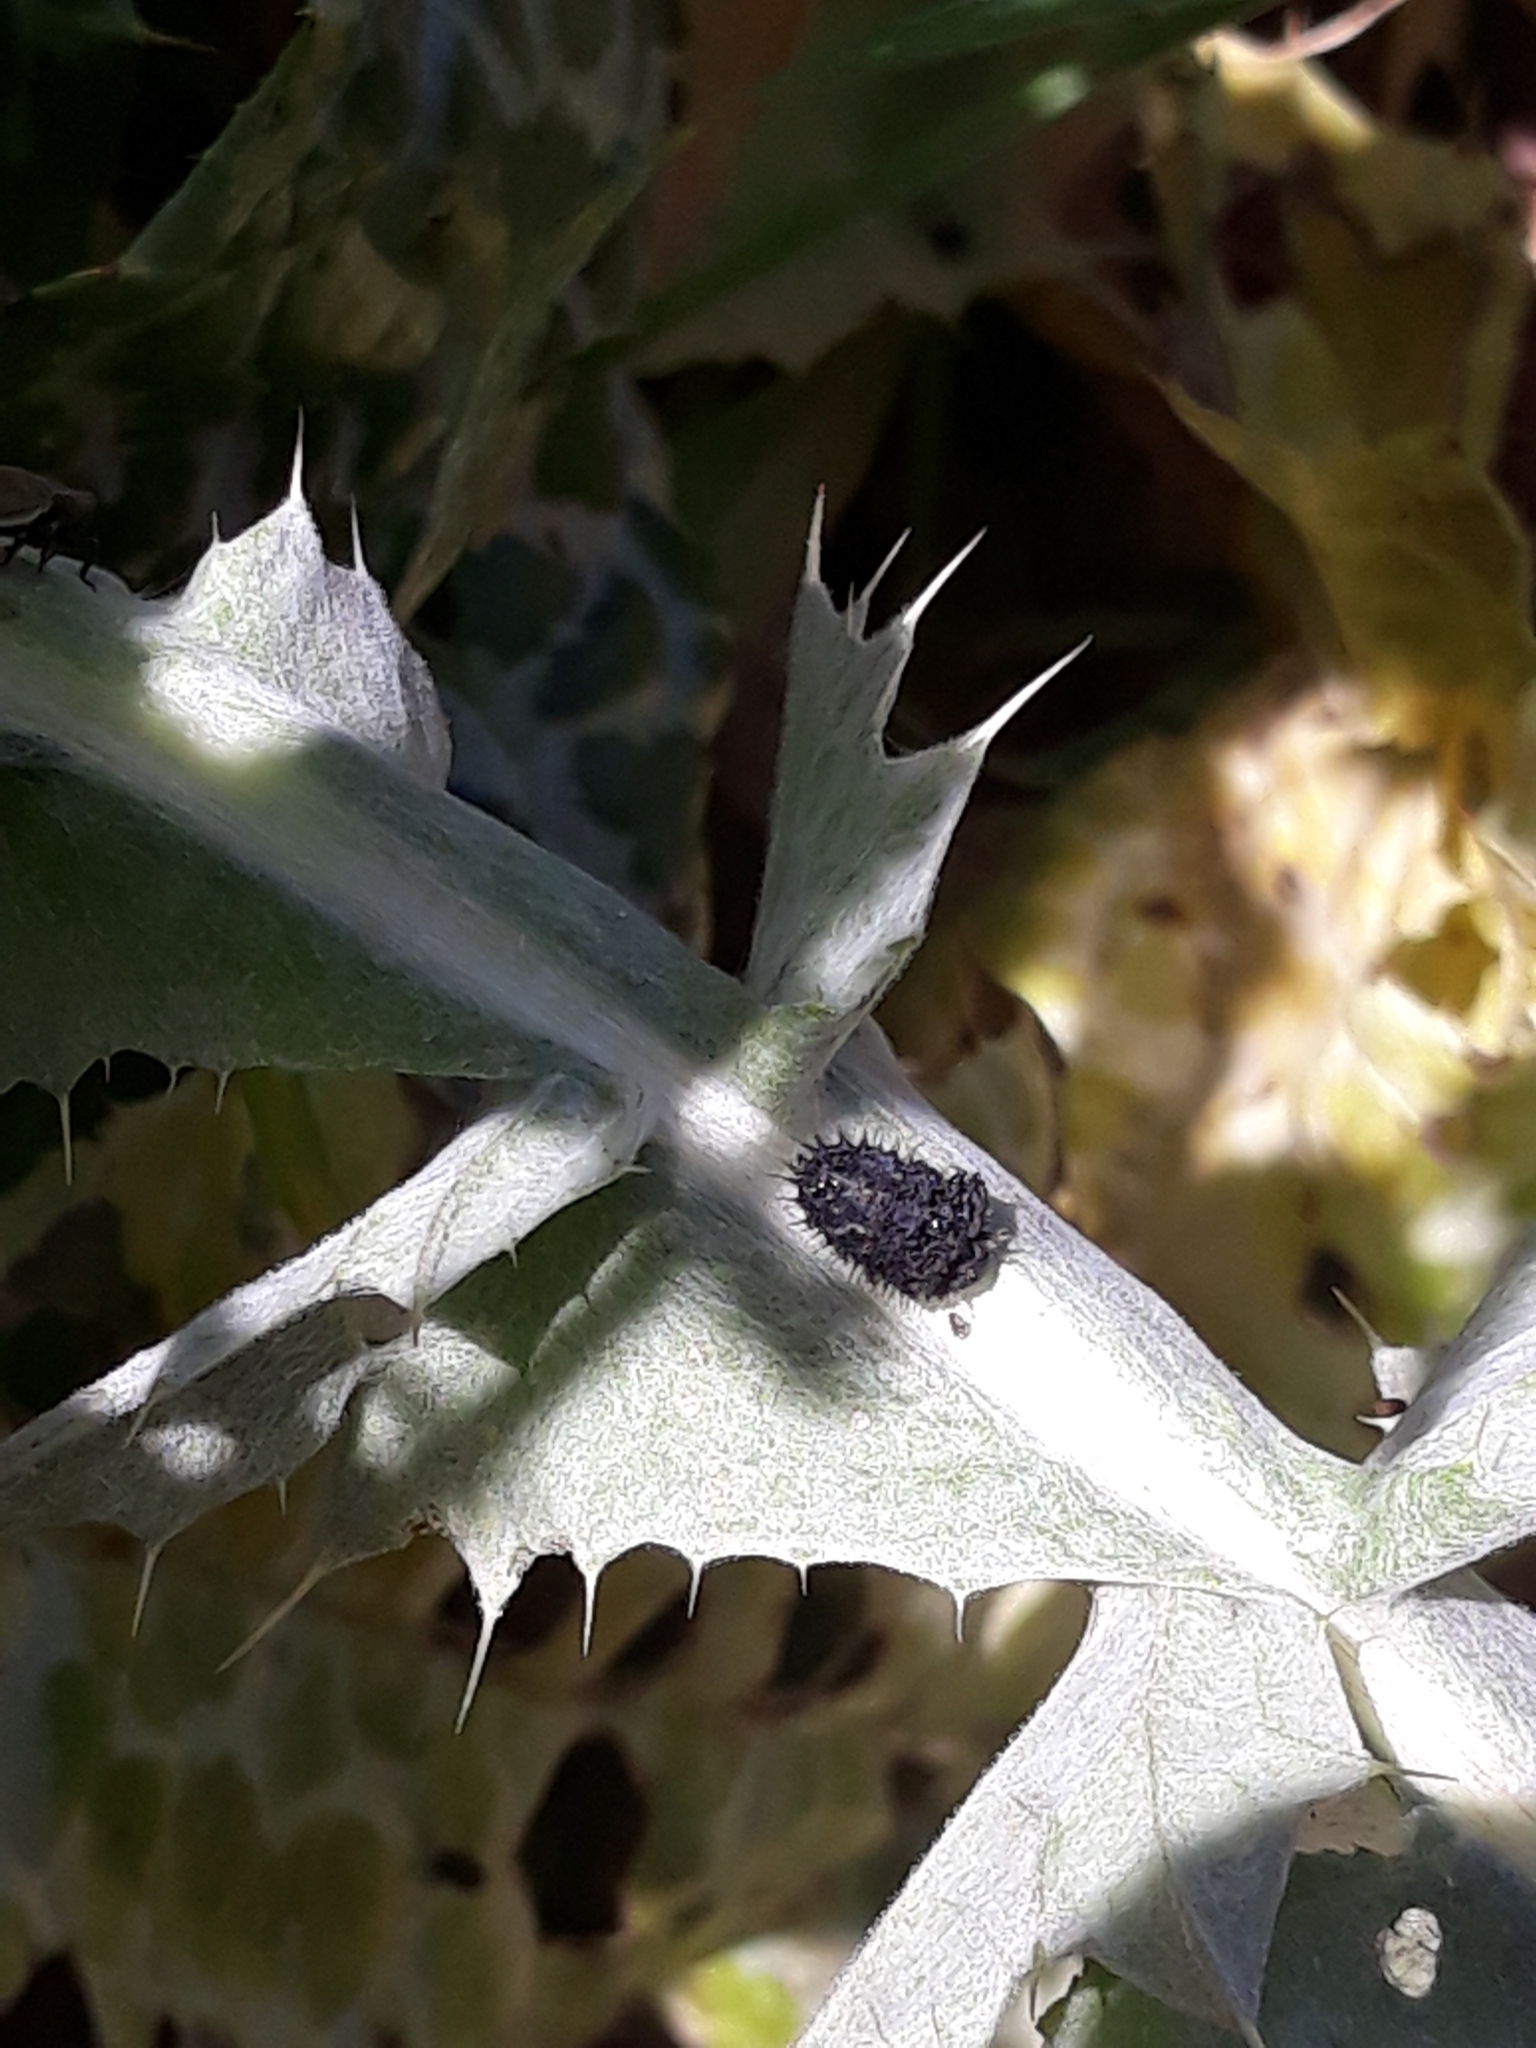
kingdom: Animalia
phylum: Arthropoda
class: Insecta
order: Coleoptera
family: Chrysomelidae
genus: Cassida
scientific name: Cassida deflorata
